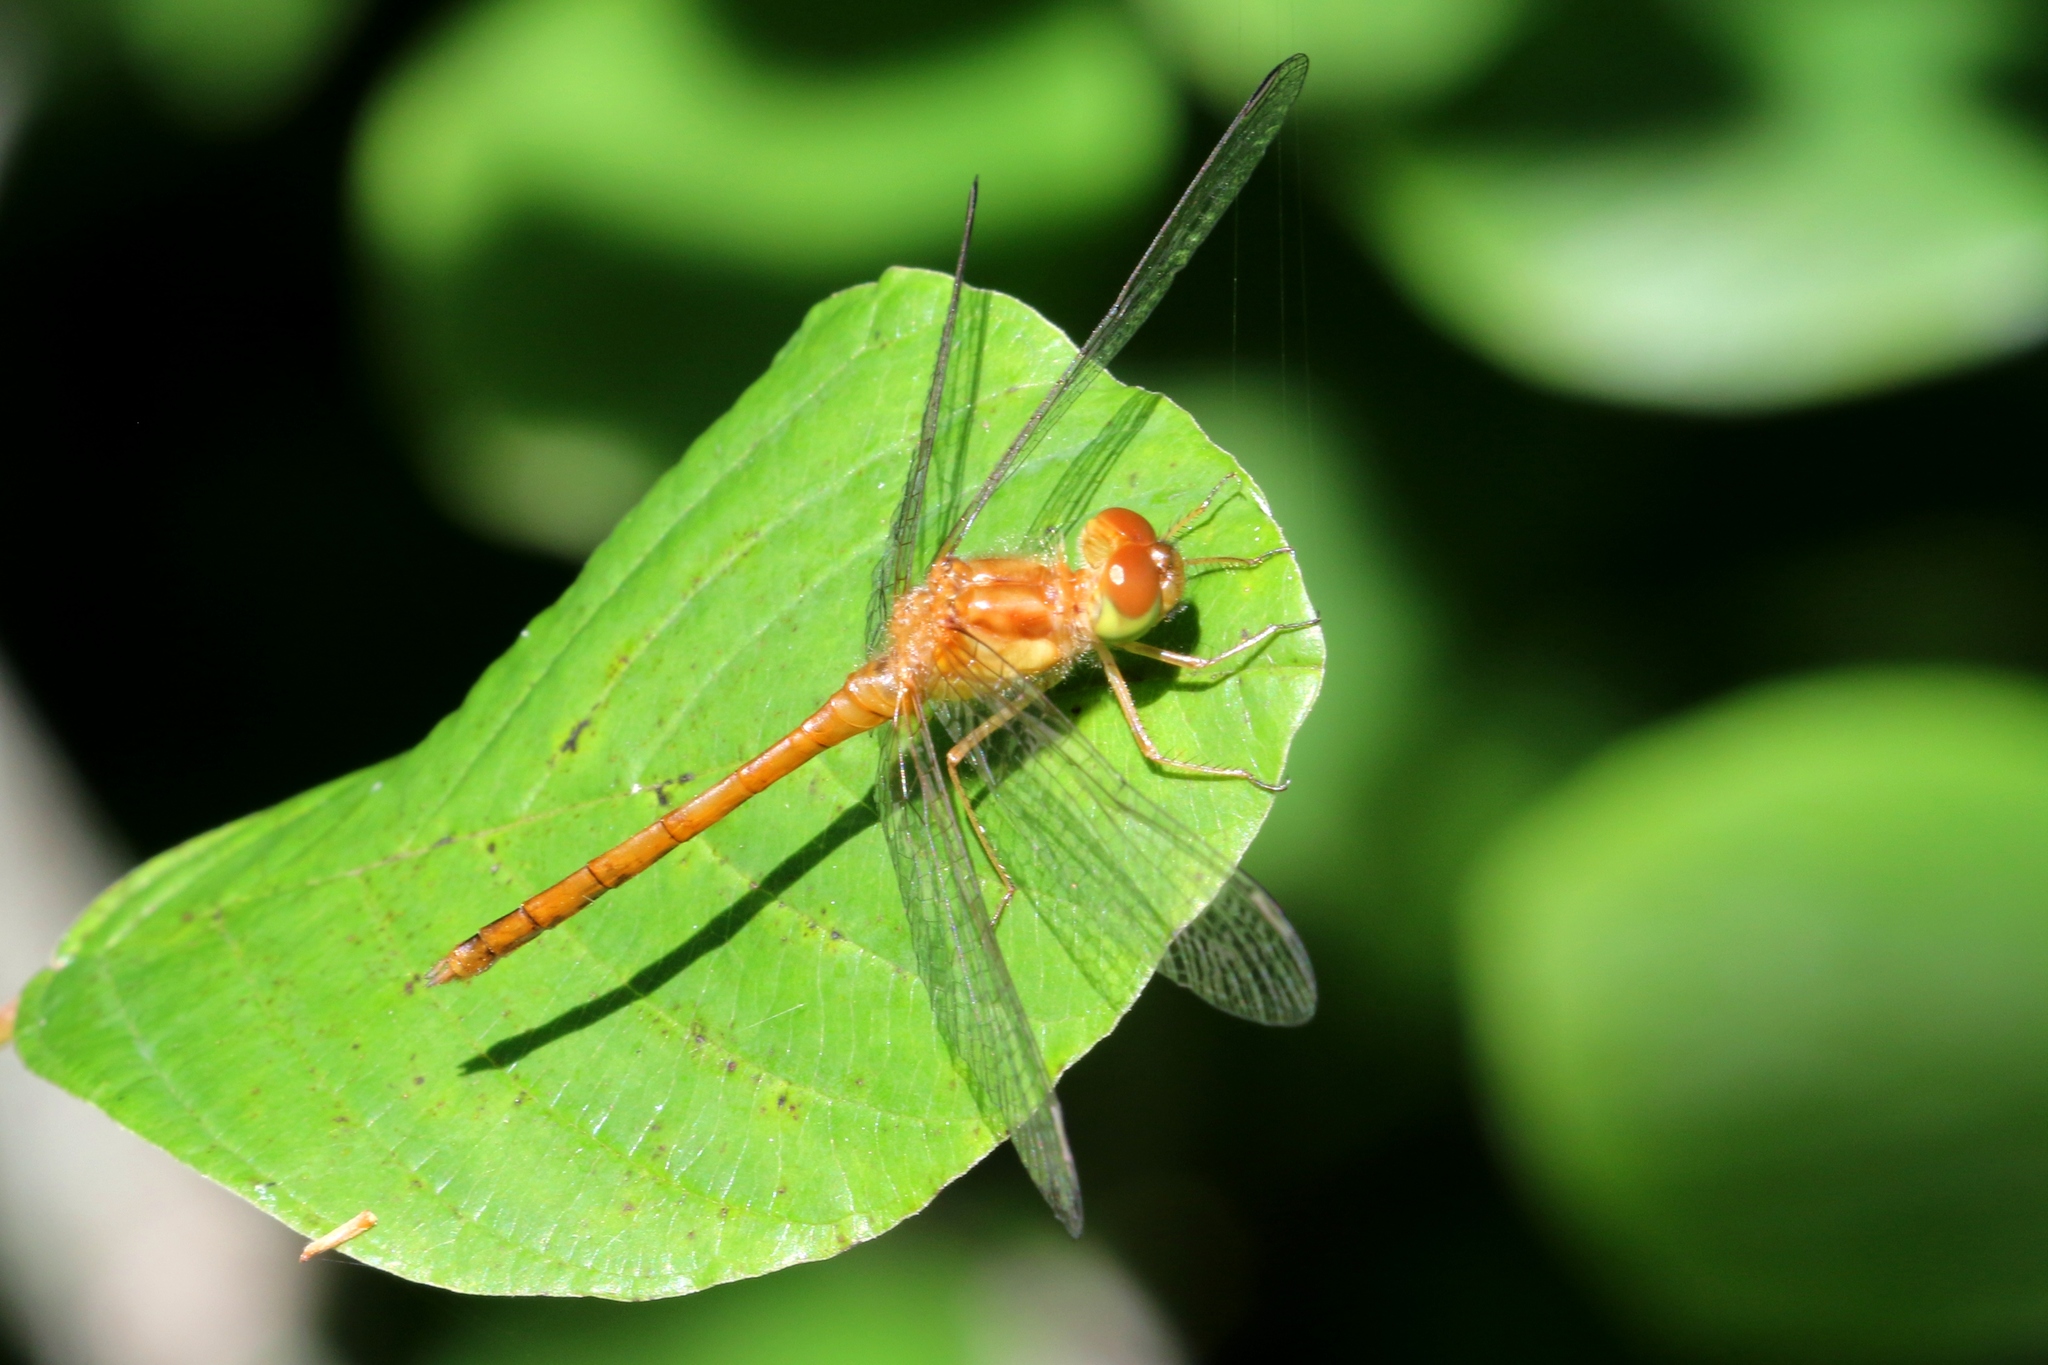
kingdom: Animalia
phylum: Arthropoda
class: Insecta
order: Odonata
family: Libellulidae
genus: Sympetrum
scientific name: Sympetrum vicinum
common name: Autumn meadowhawk
